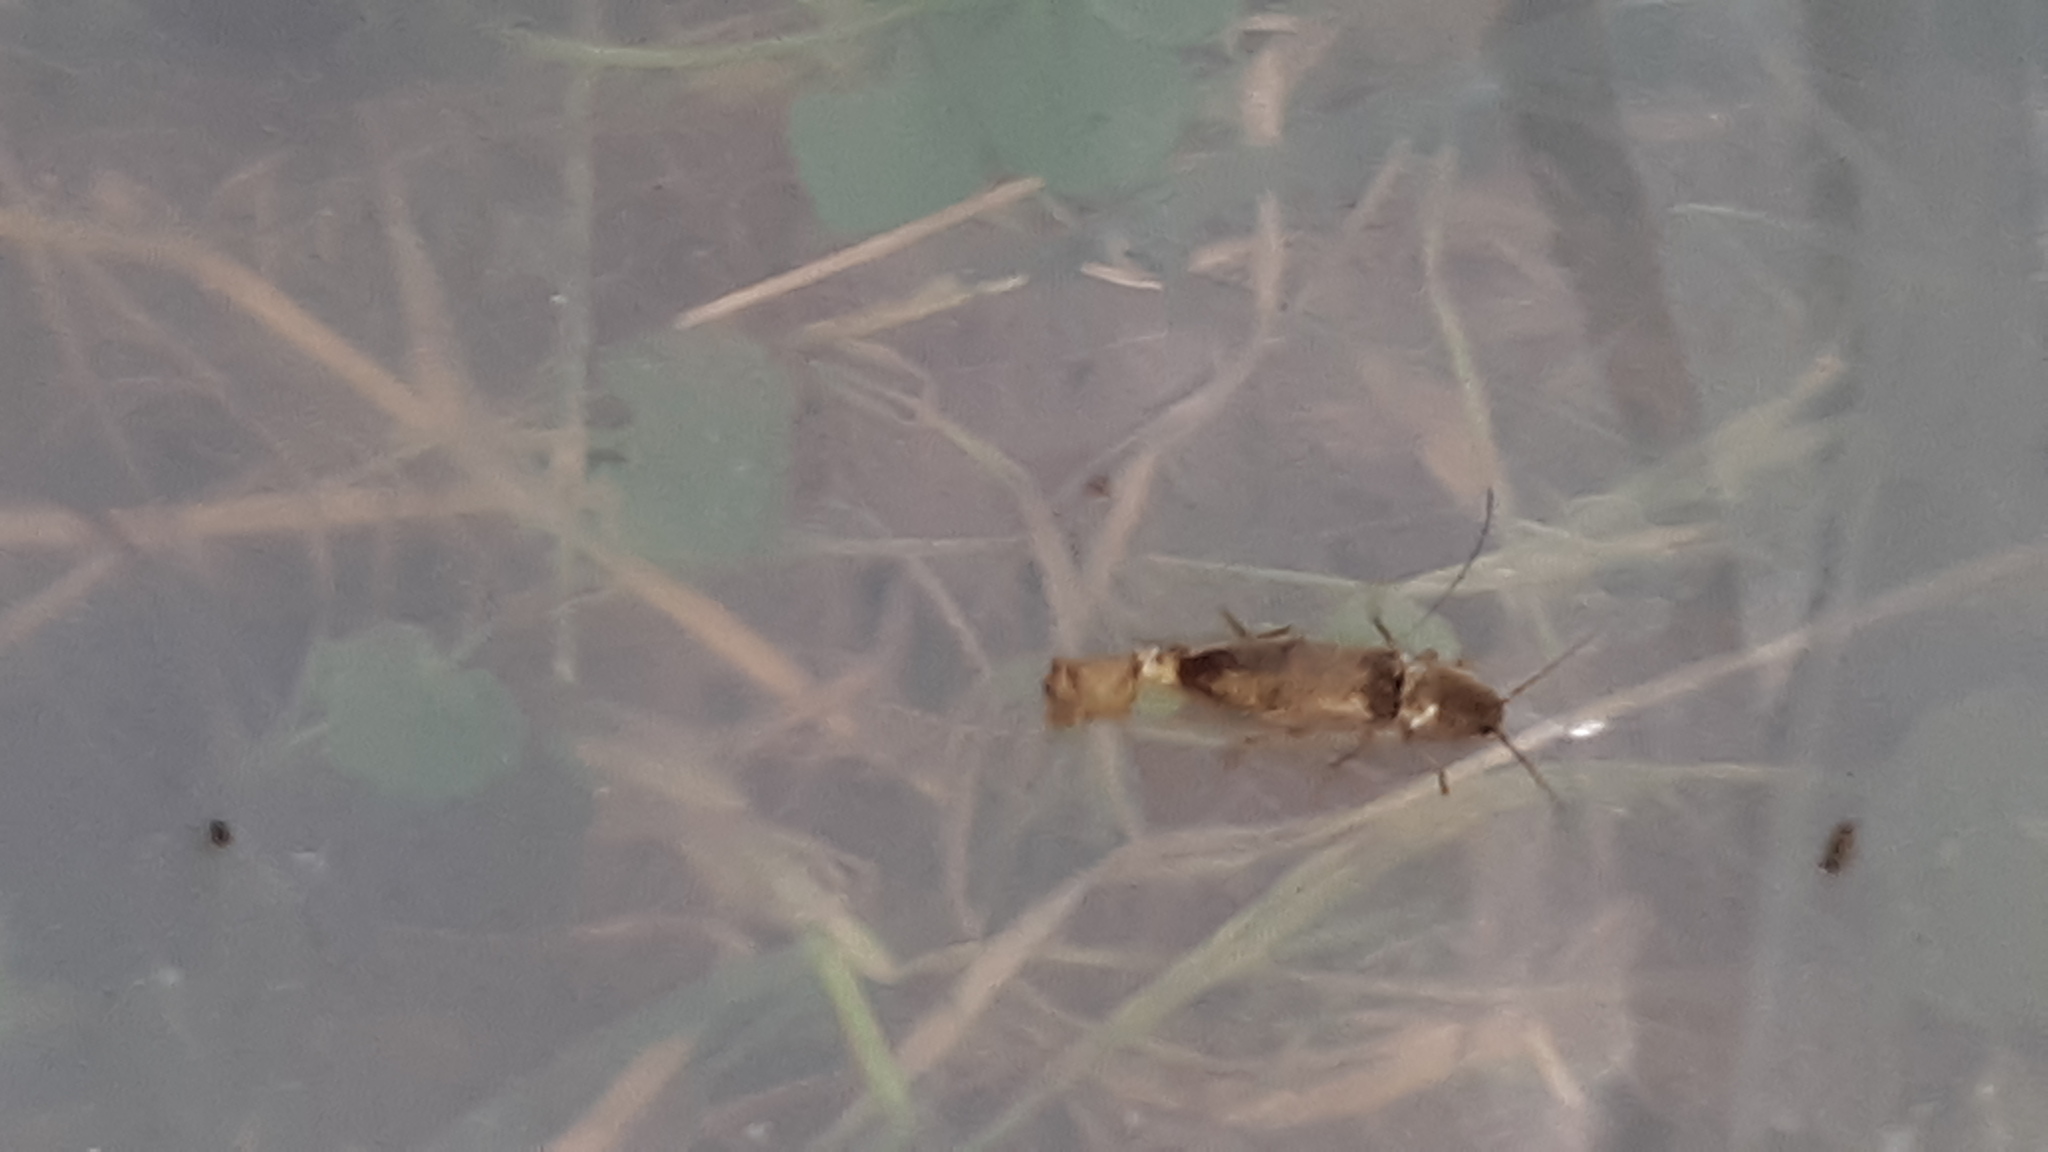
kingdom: Animalia
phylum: Arthropoda
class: Insecta
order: Coleoptera
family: Elateridae
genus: Monocrepidius
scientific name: Monocrepidius lividus
